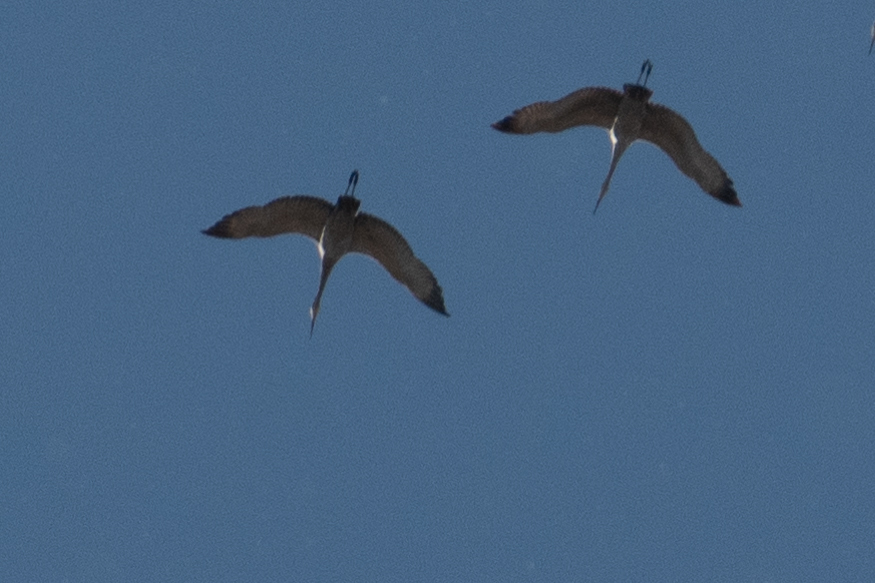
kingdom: Animalia
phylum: Chordata
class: Aves
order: Gruiformes
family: Gruidae
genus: Grus
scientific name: Grus canadensis
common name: Sandhill crane
